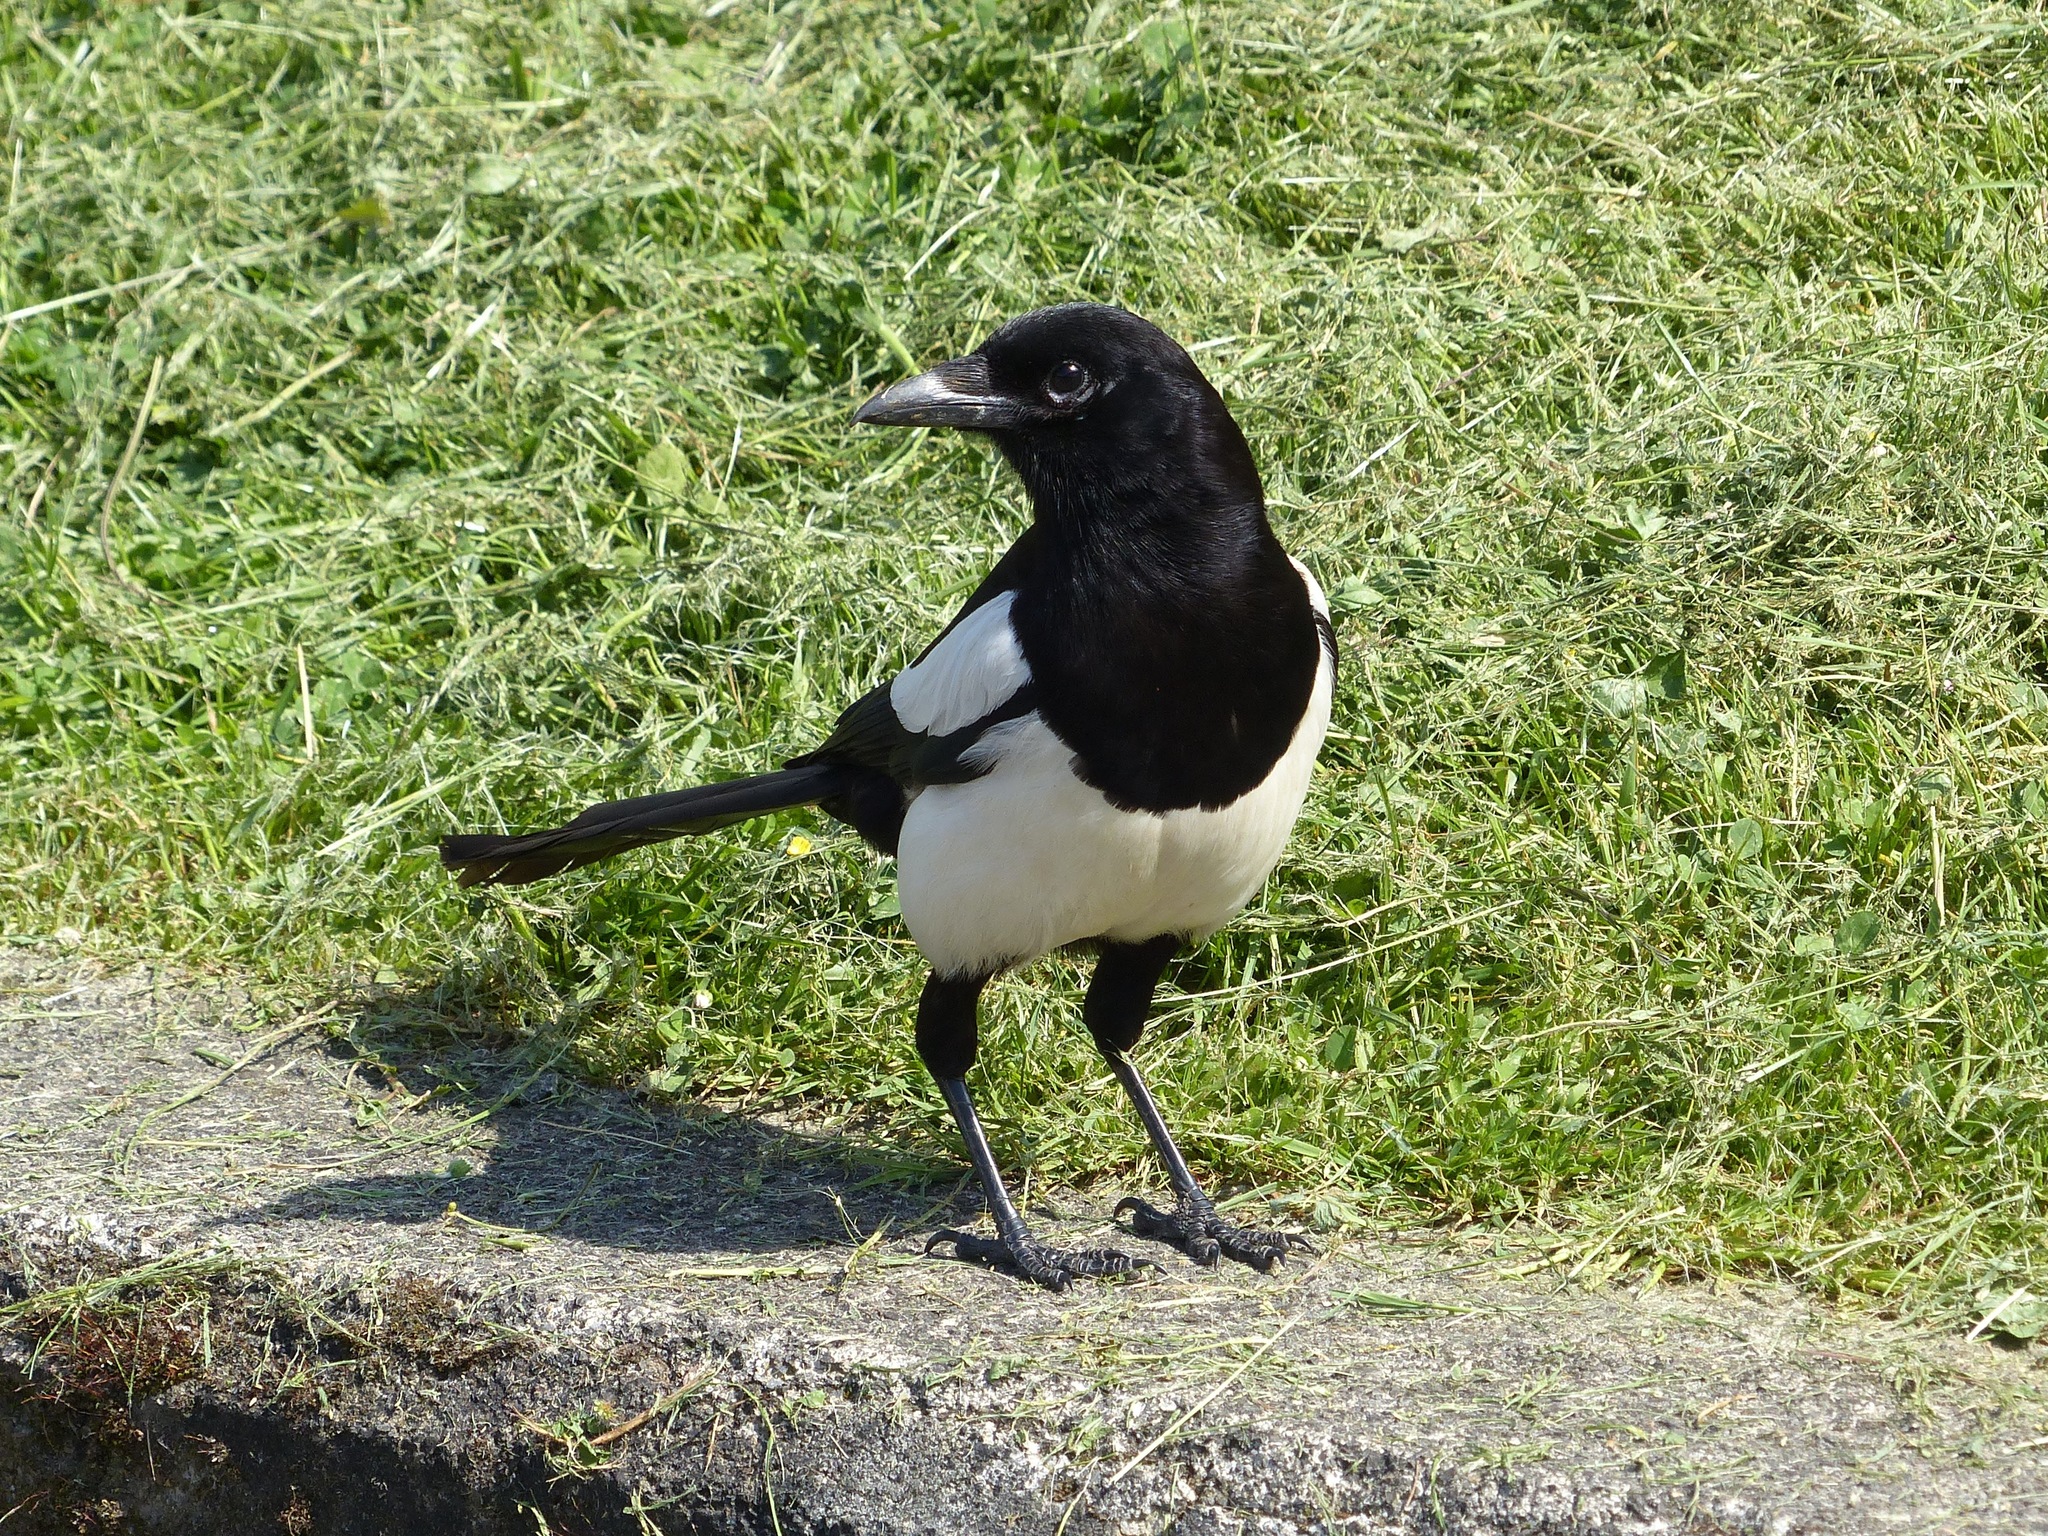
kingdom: Animalia
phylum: Chordata
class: Aves
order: Passeriformes
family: Corvidae
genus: Pica
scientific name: Pica pica
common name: Eurasian magpie
